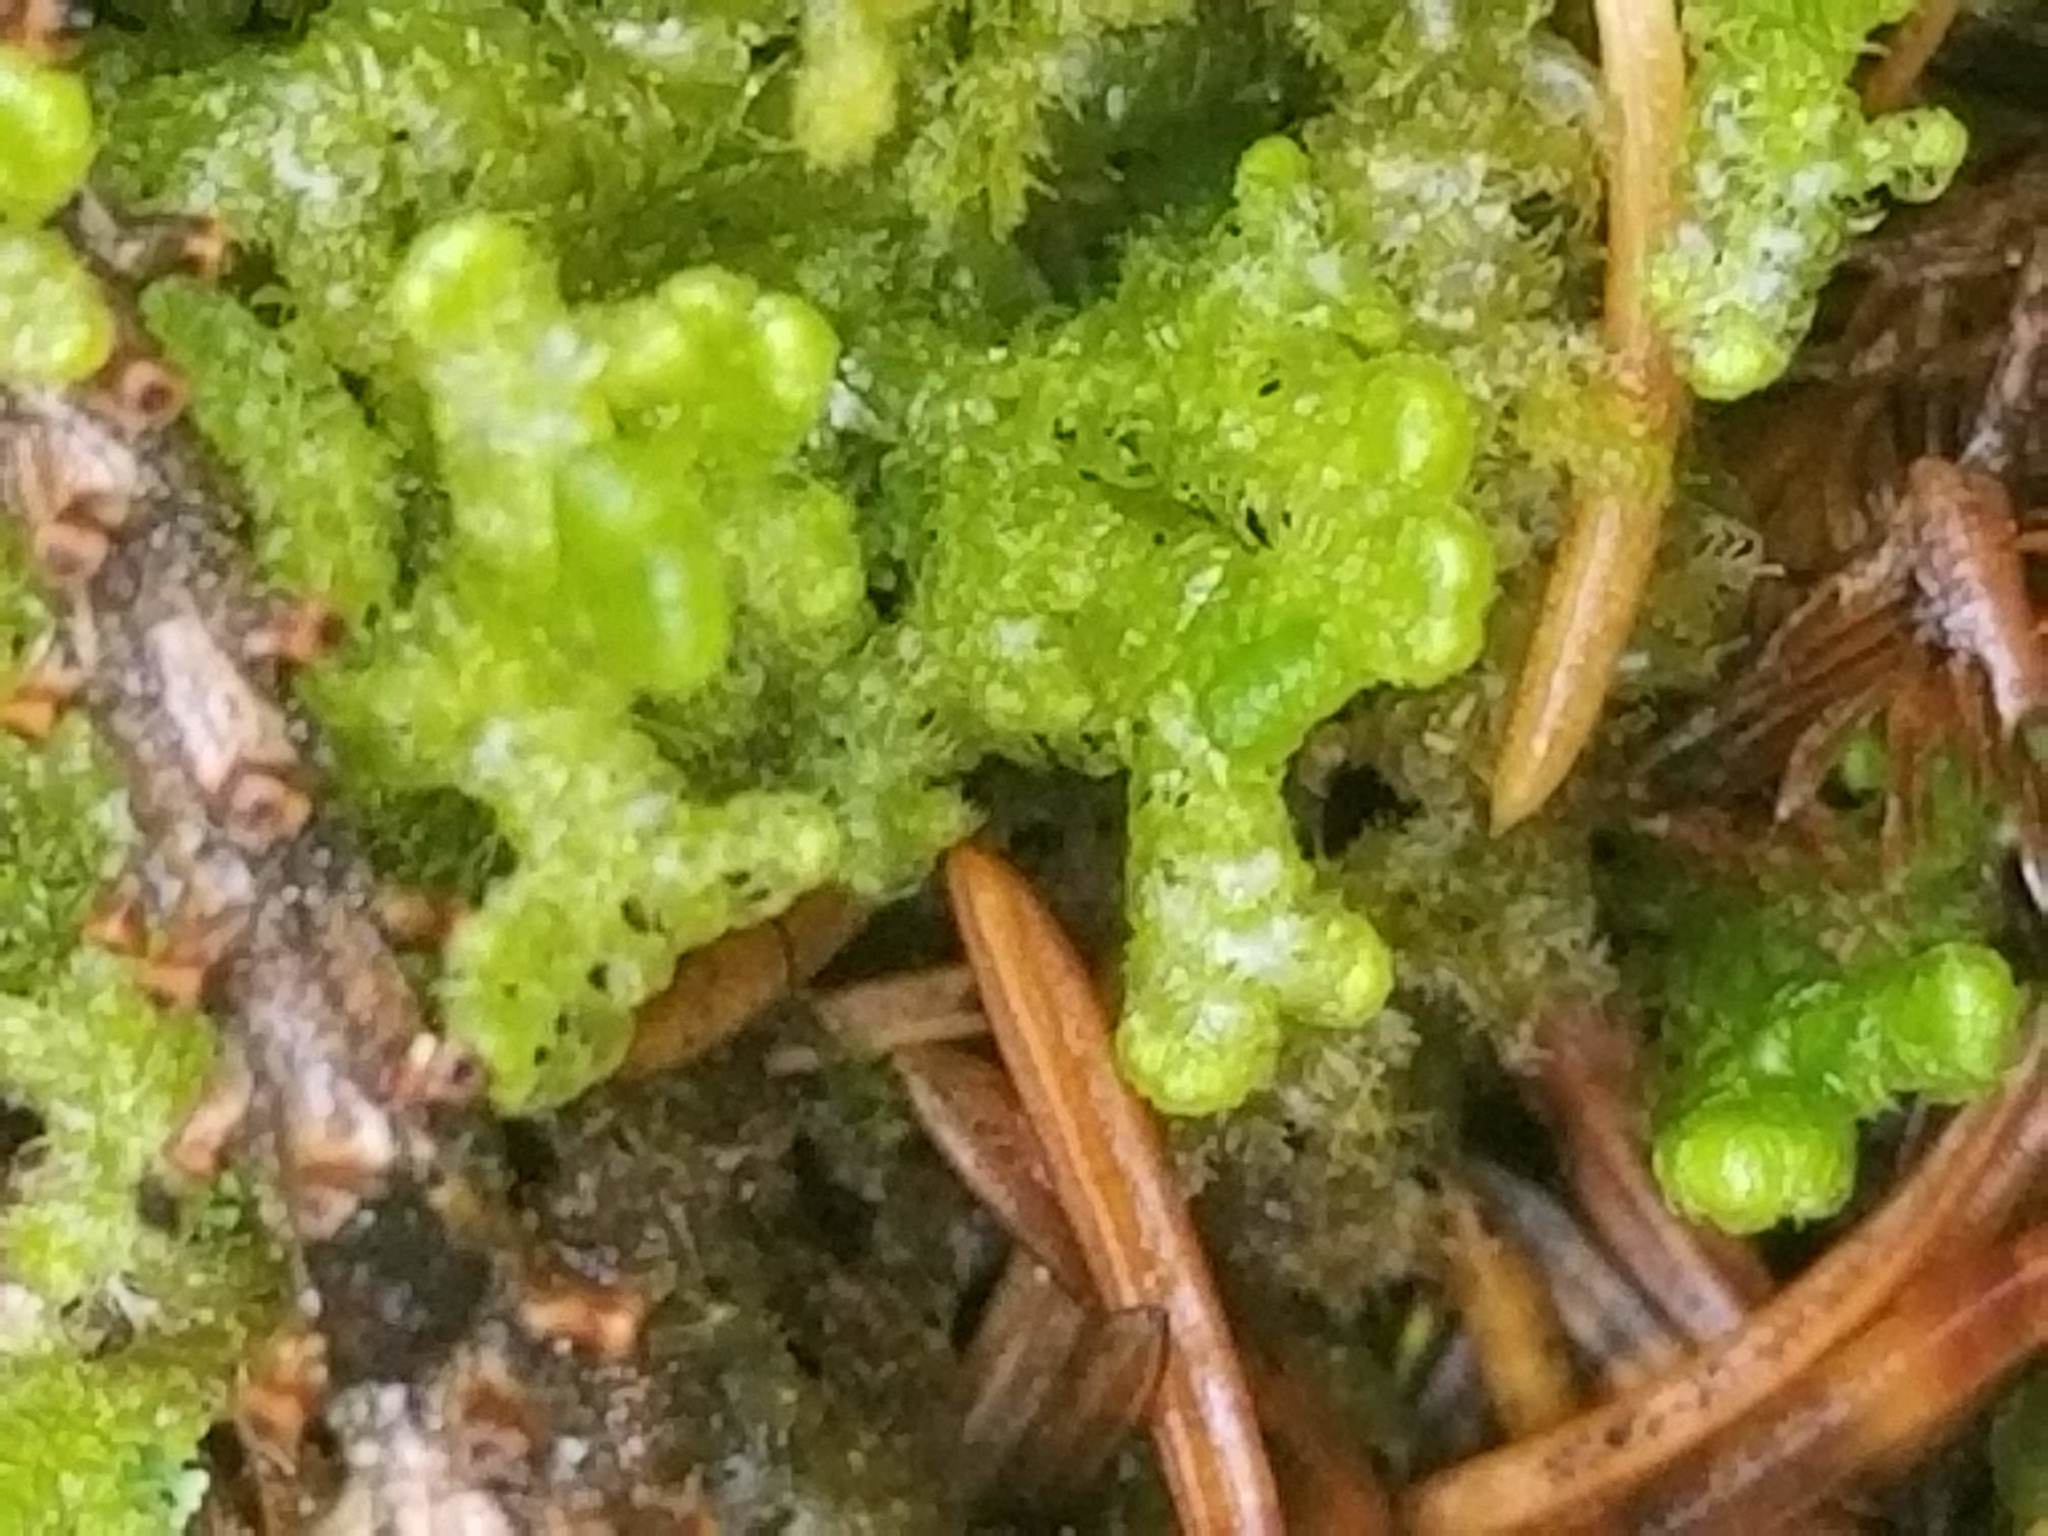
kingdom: Plantae
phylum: Marchantiophyta
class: Jungermanniopsida
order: Ptilidiales
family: Ptilidiaceae
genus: Ptilidium
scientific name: Ptilidium ciliare
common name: Ciliate fringewort
